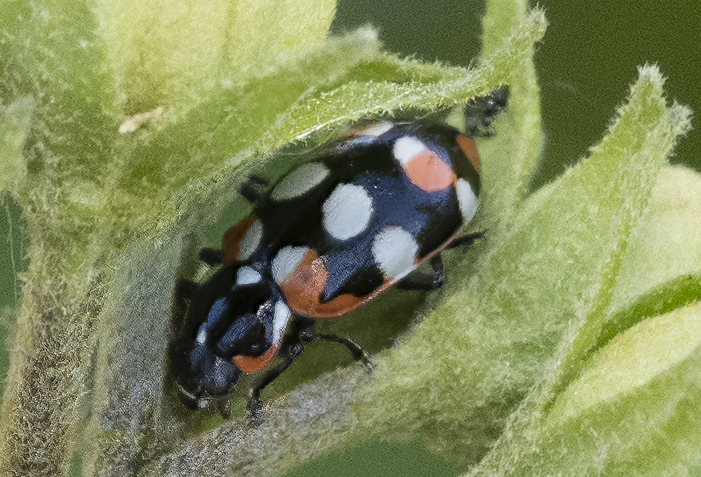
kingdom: Animalia
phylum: Arthropoda
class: Insecta
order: Coleoptera
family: Coccinellidae
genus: Eriopis
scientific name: Eriopis connexa
